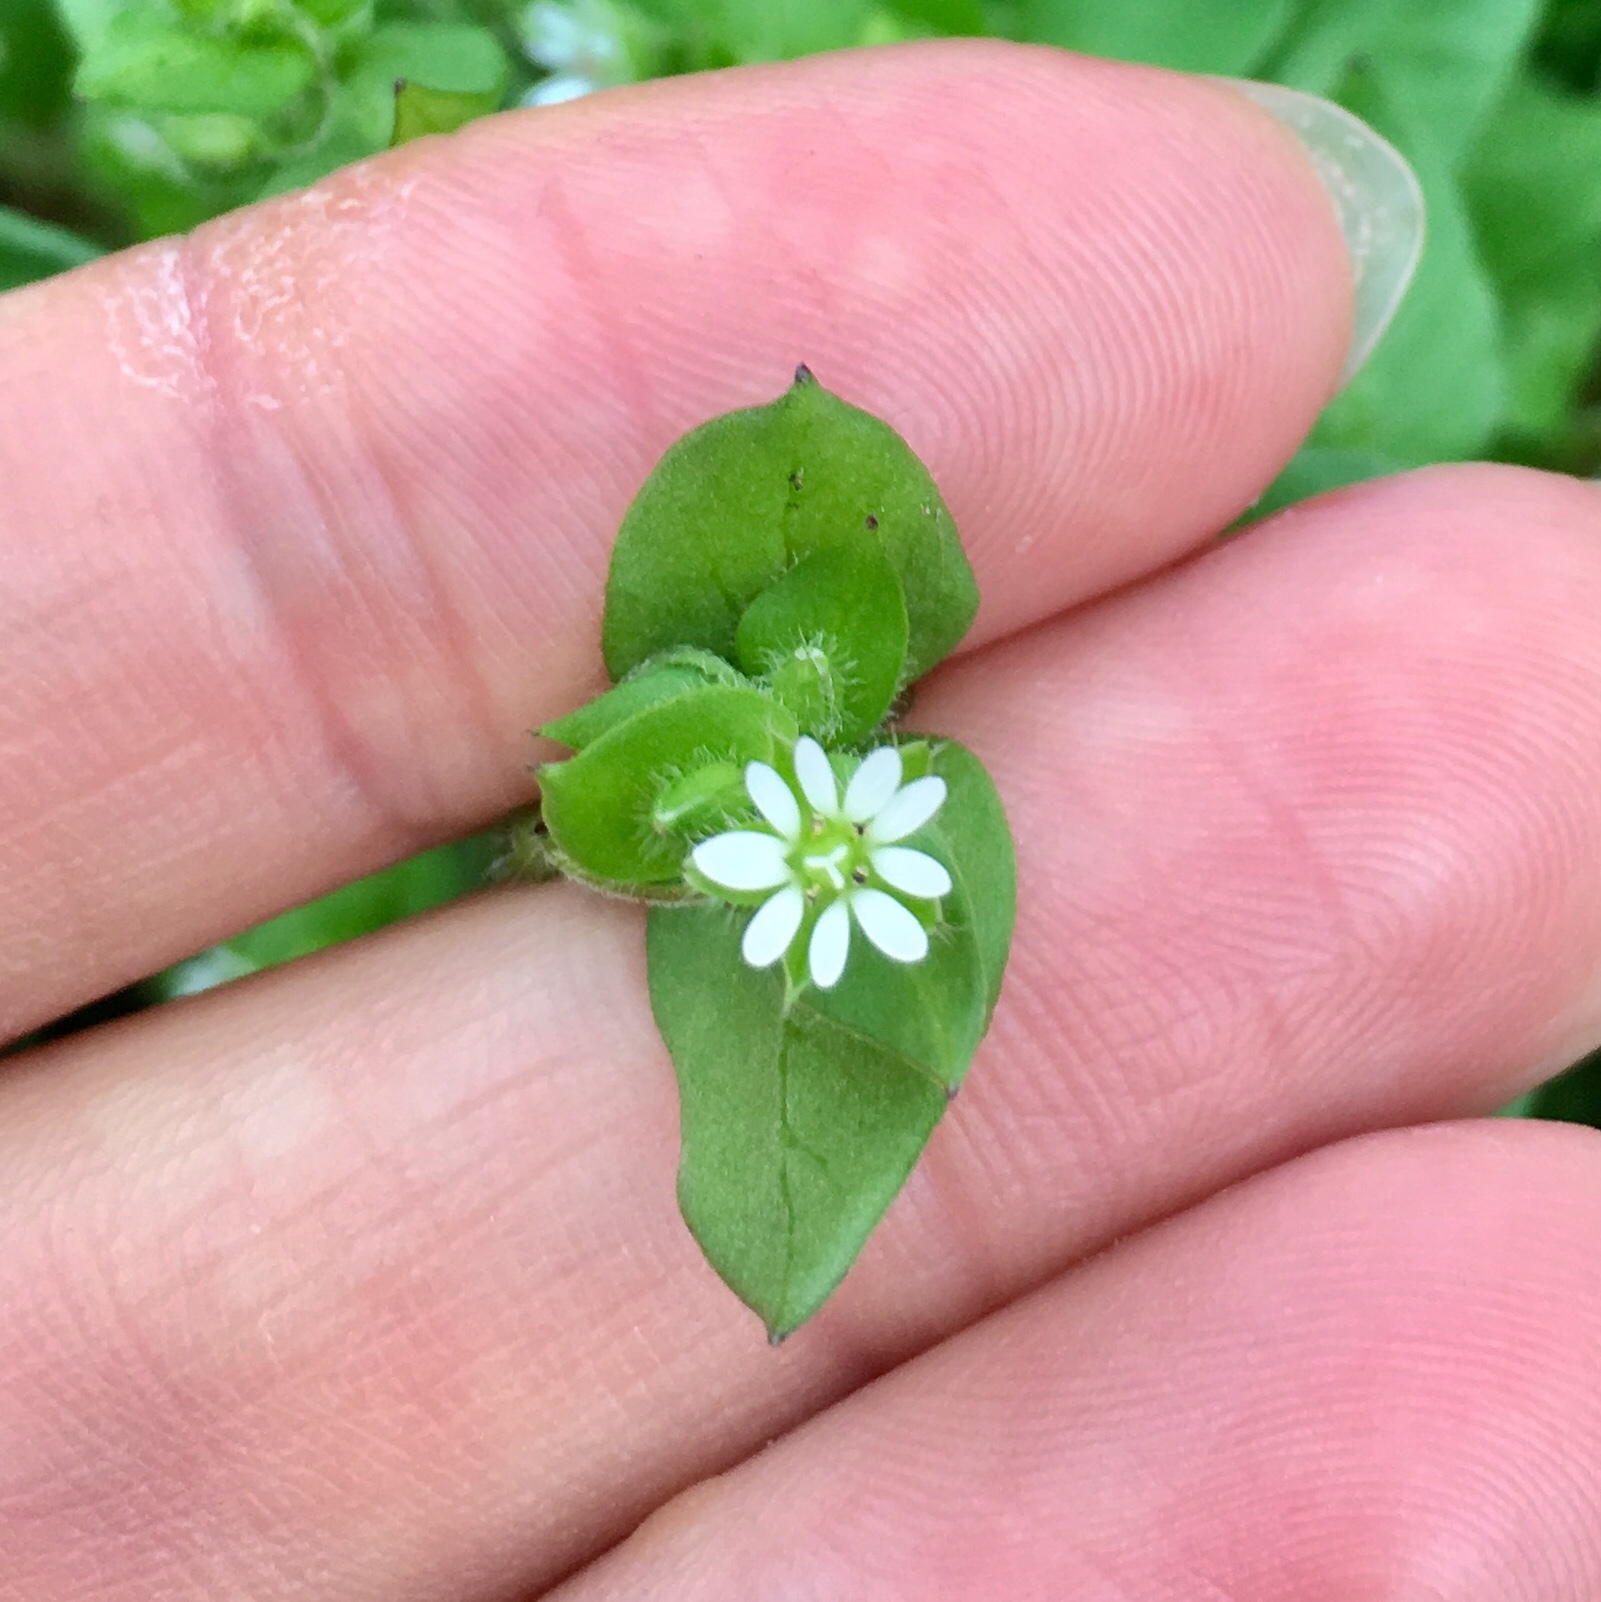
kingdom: Plantae
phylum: Tracheophyta
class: Magnoliopsida
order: Caryophyllales
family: Caryophyllaceae
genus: Stellaria
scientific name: Stellaria media
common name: Common chickweed
